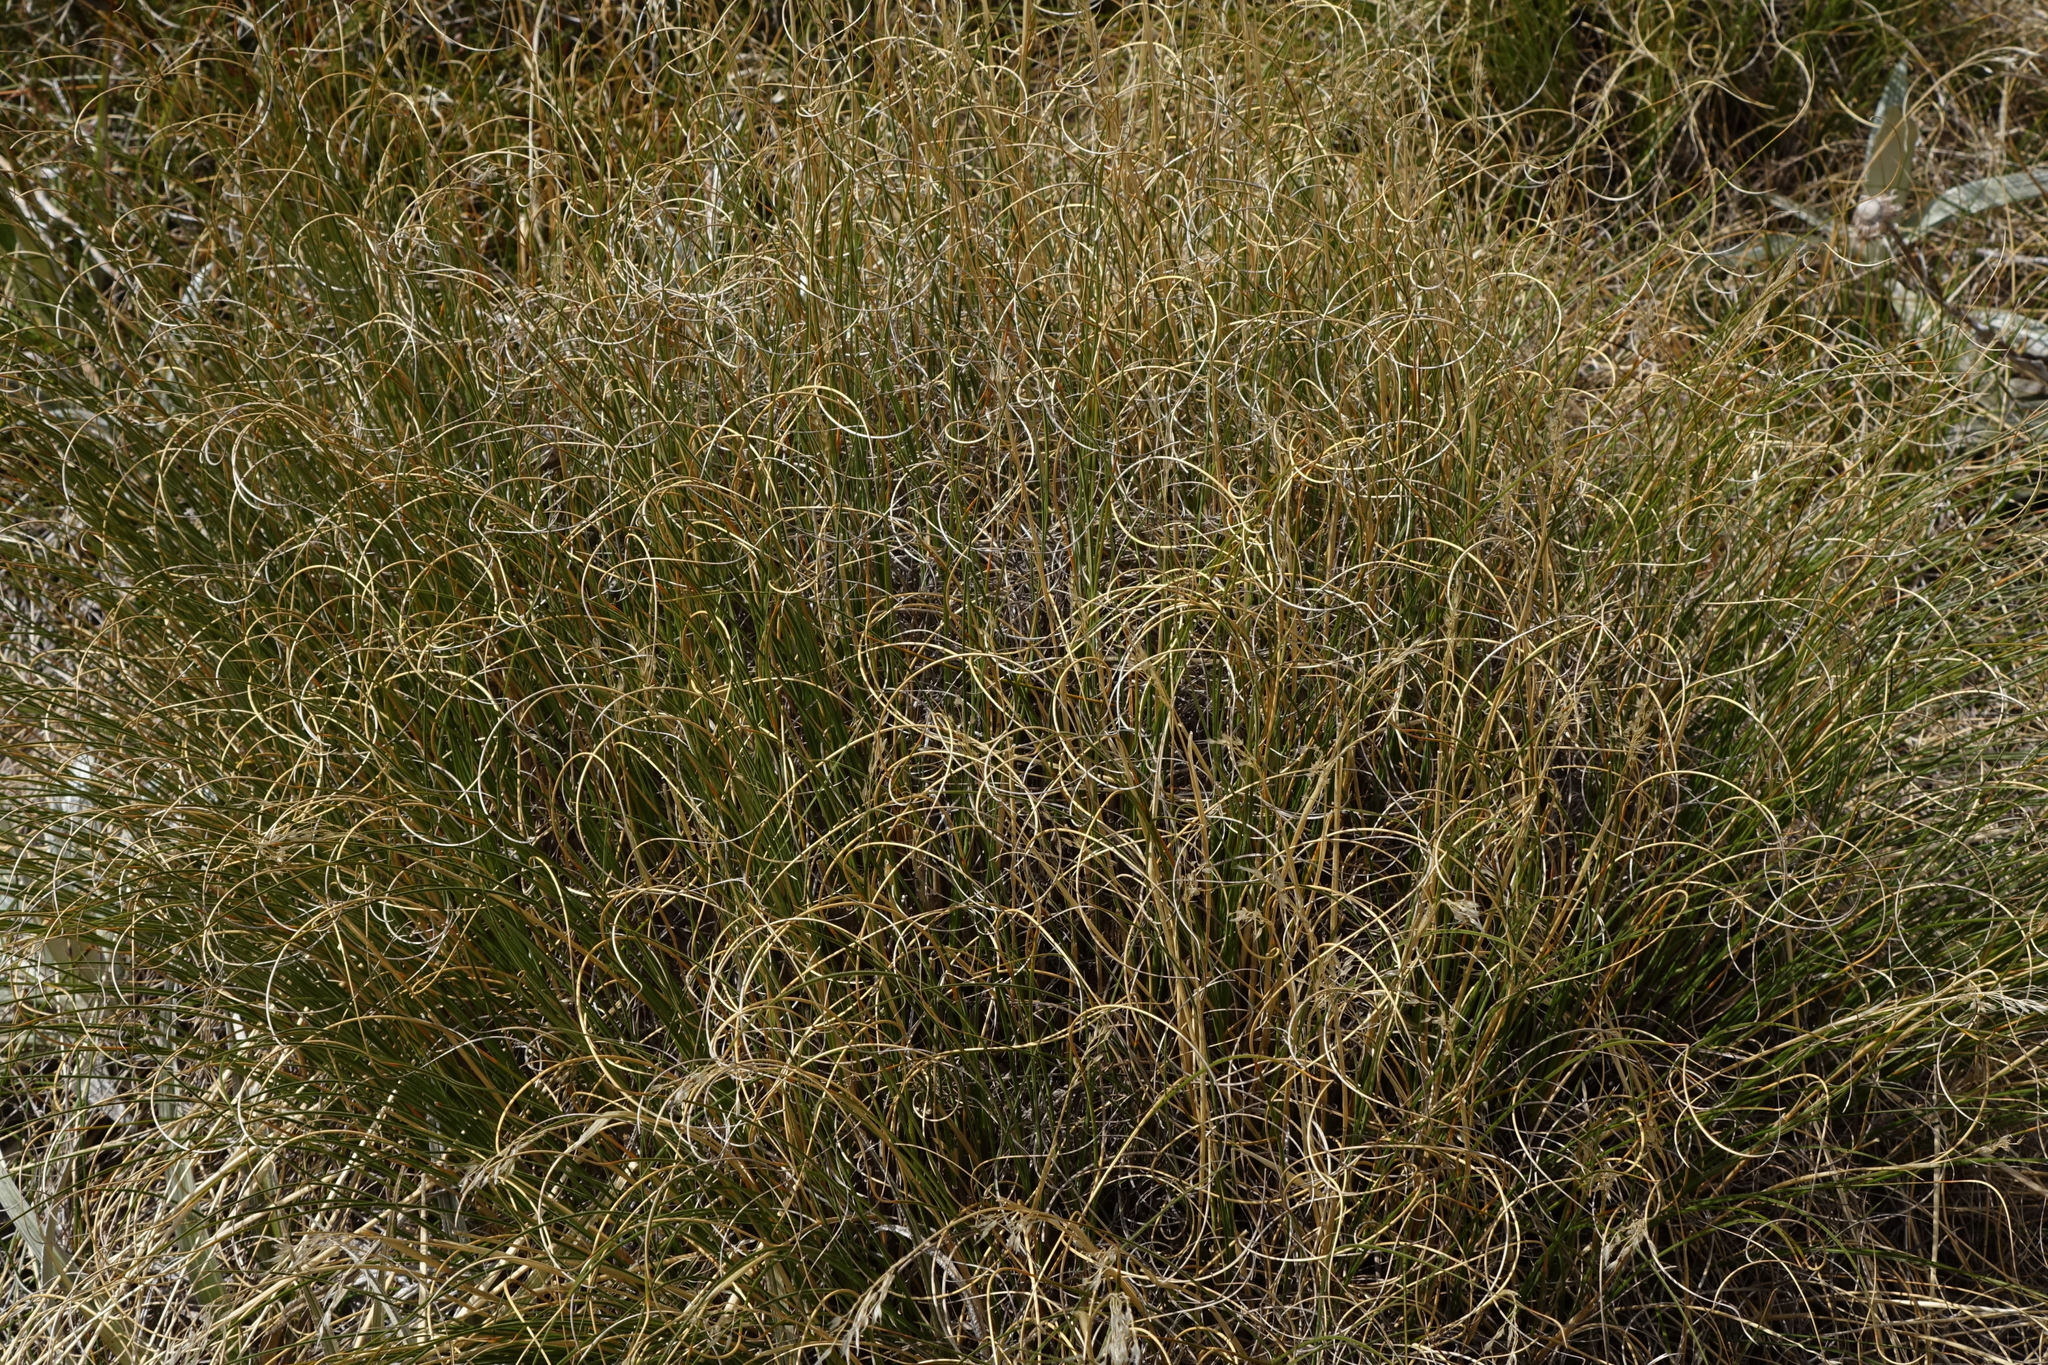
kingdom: Plantae
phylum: Tracheophyta
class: Liliopsida
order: Poales
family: Poaceae
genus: Chionochloa
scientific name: Chionochloa crassiuscula
